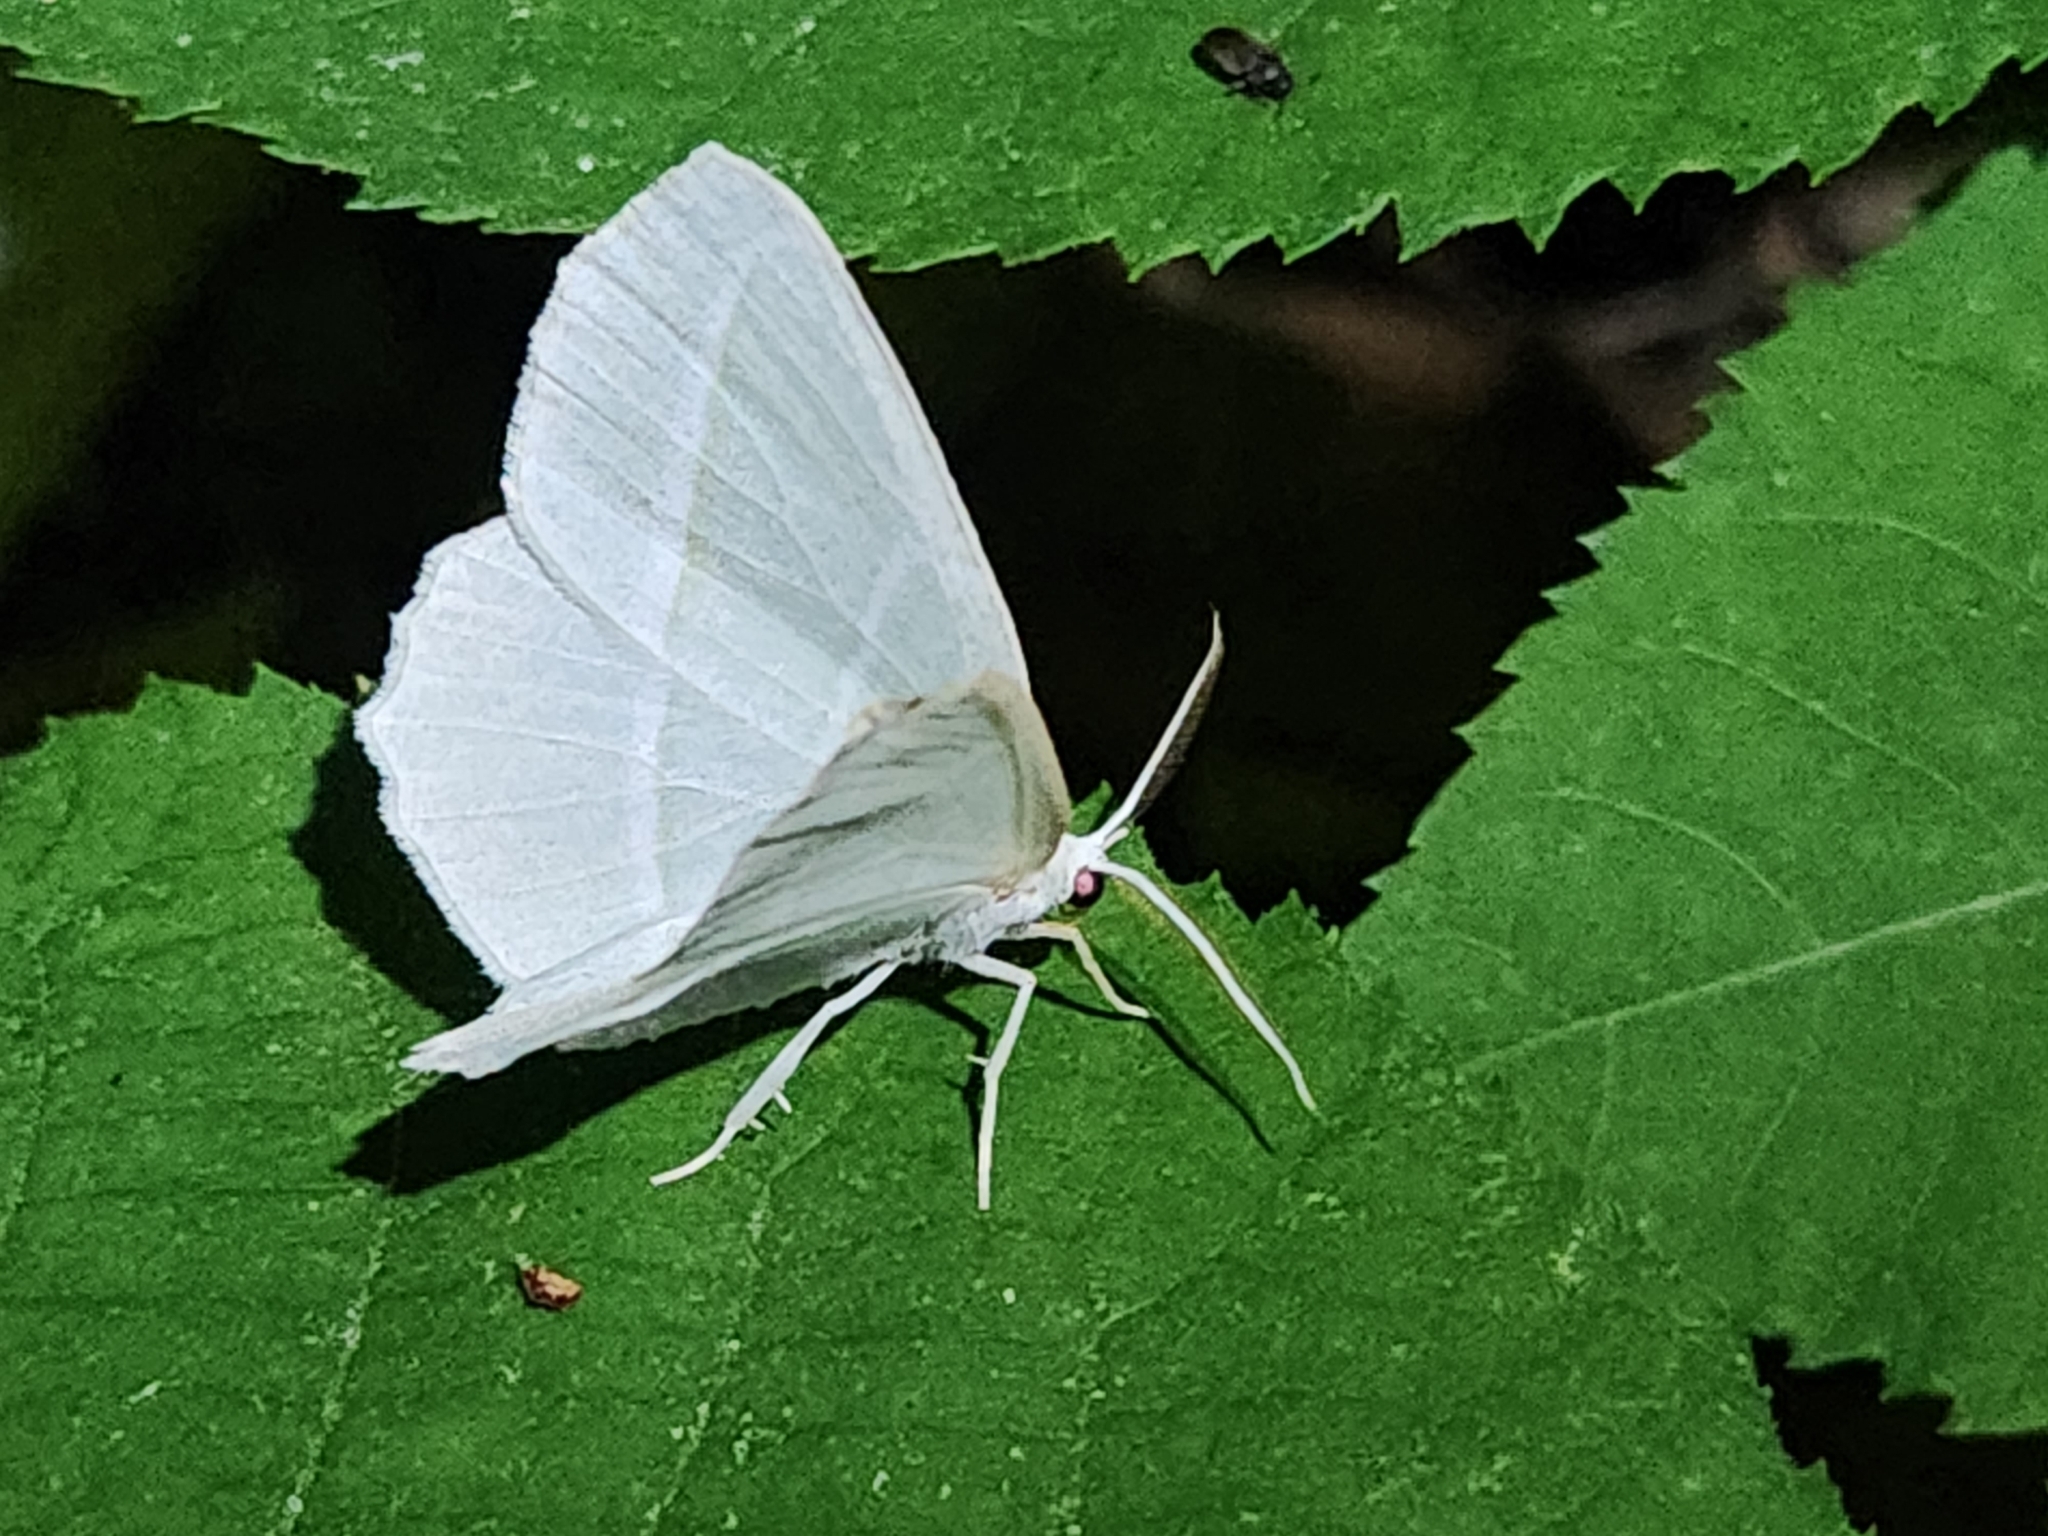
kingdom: Animalia
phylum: Arthropoda
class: Insecta
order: Lepidoptera
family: Geometridae
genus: Campaea
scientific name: Campaea perlata
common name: Fringed looper
